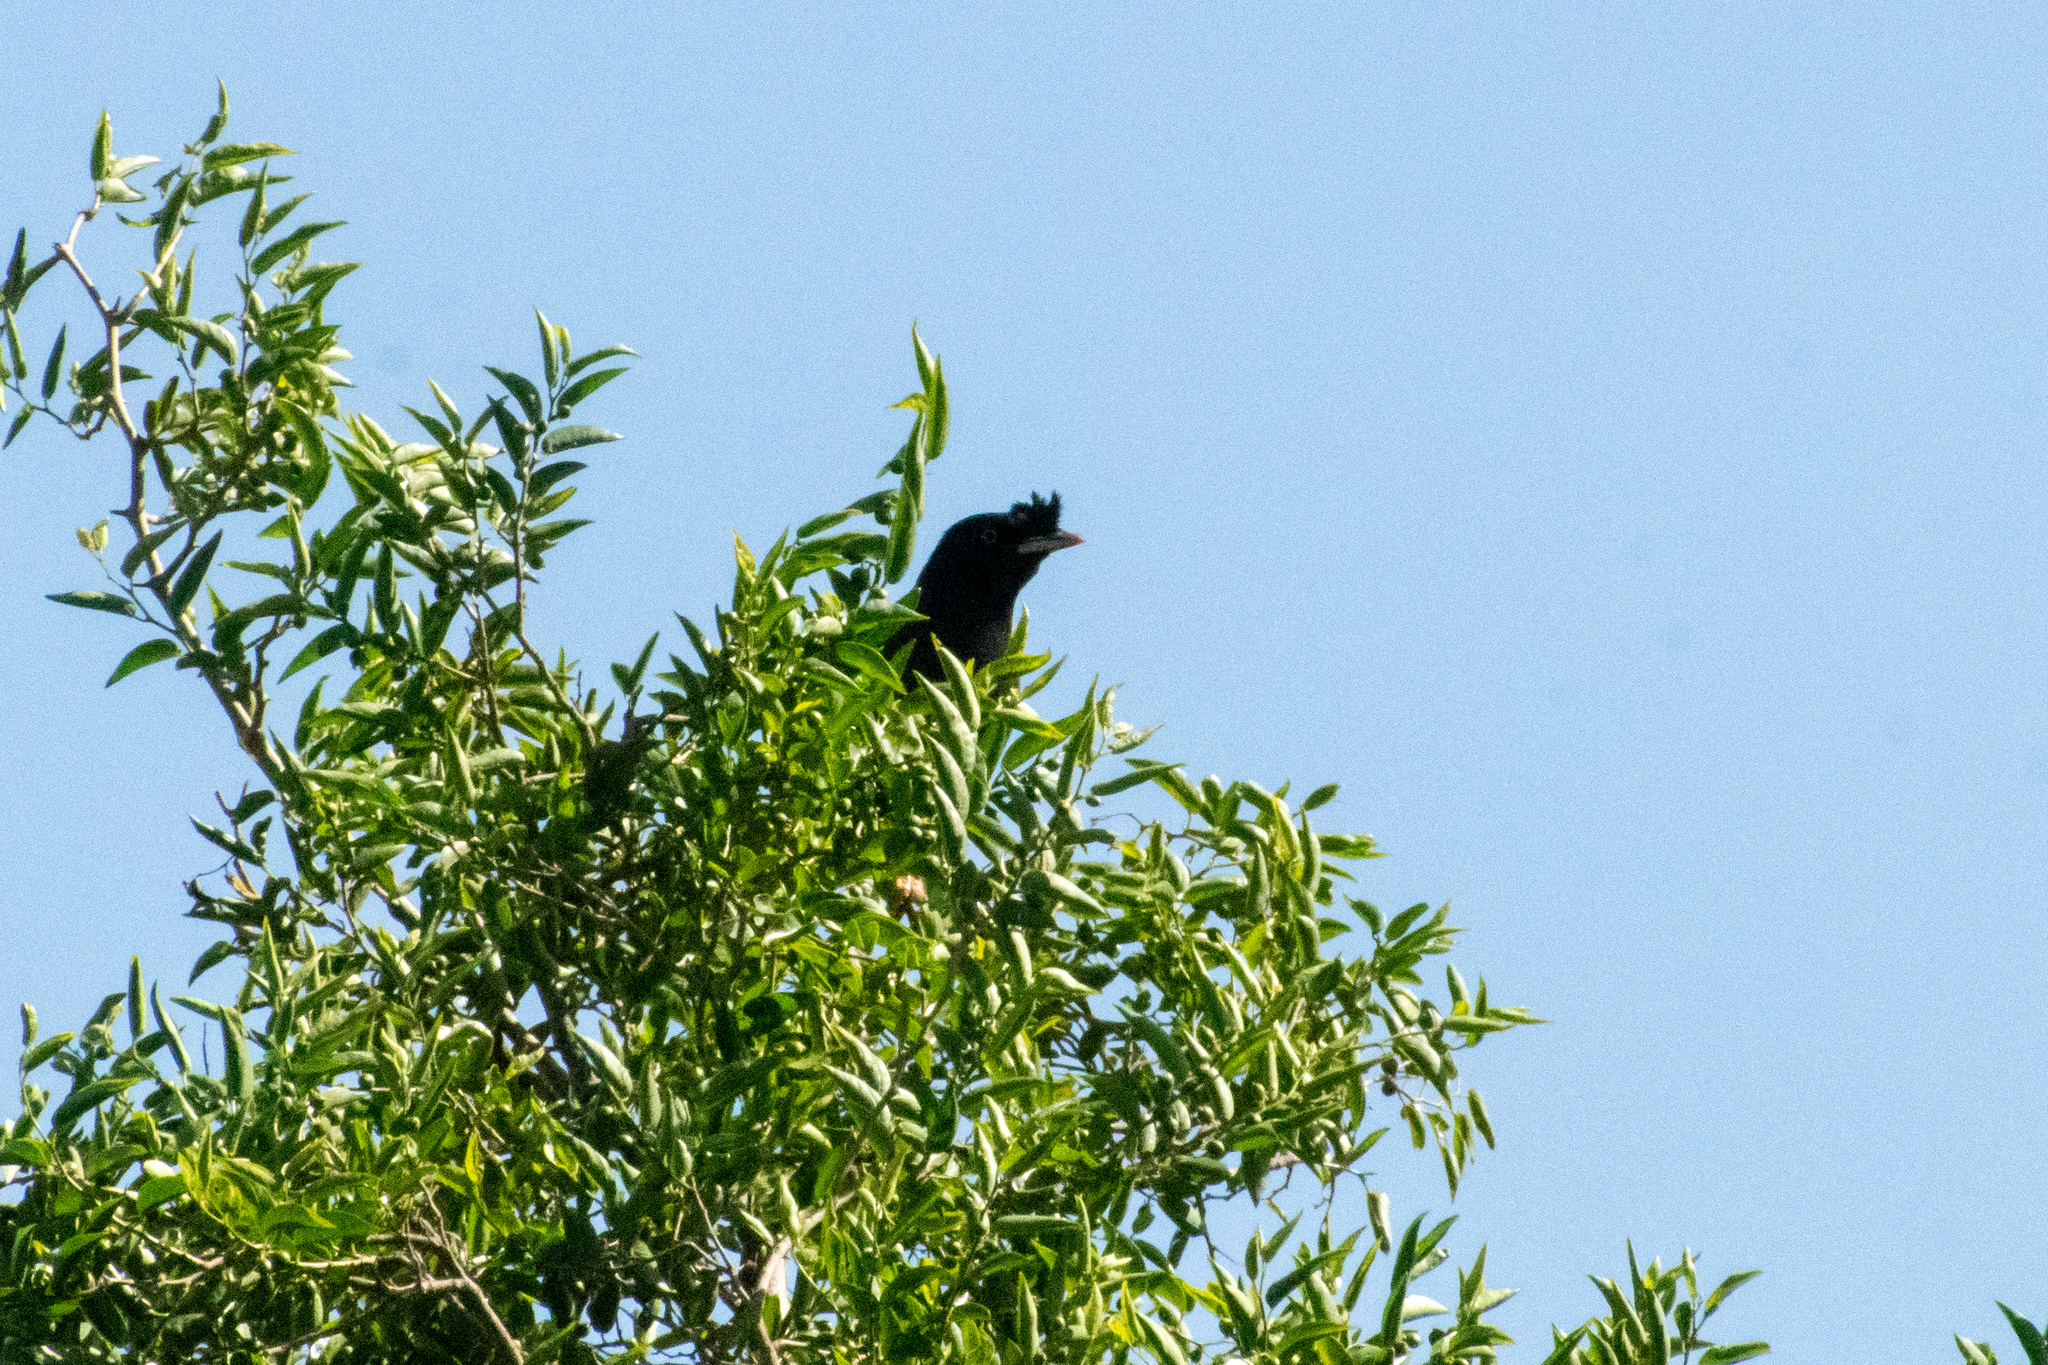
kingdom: Animalia
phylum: Chordata
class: Aves
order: Passeriformes
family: Sturnidae
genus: Acridotheres
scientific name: Acridotheres cristatellus
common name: Crested myna
